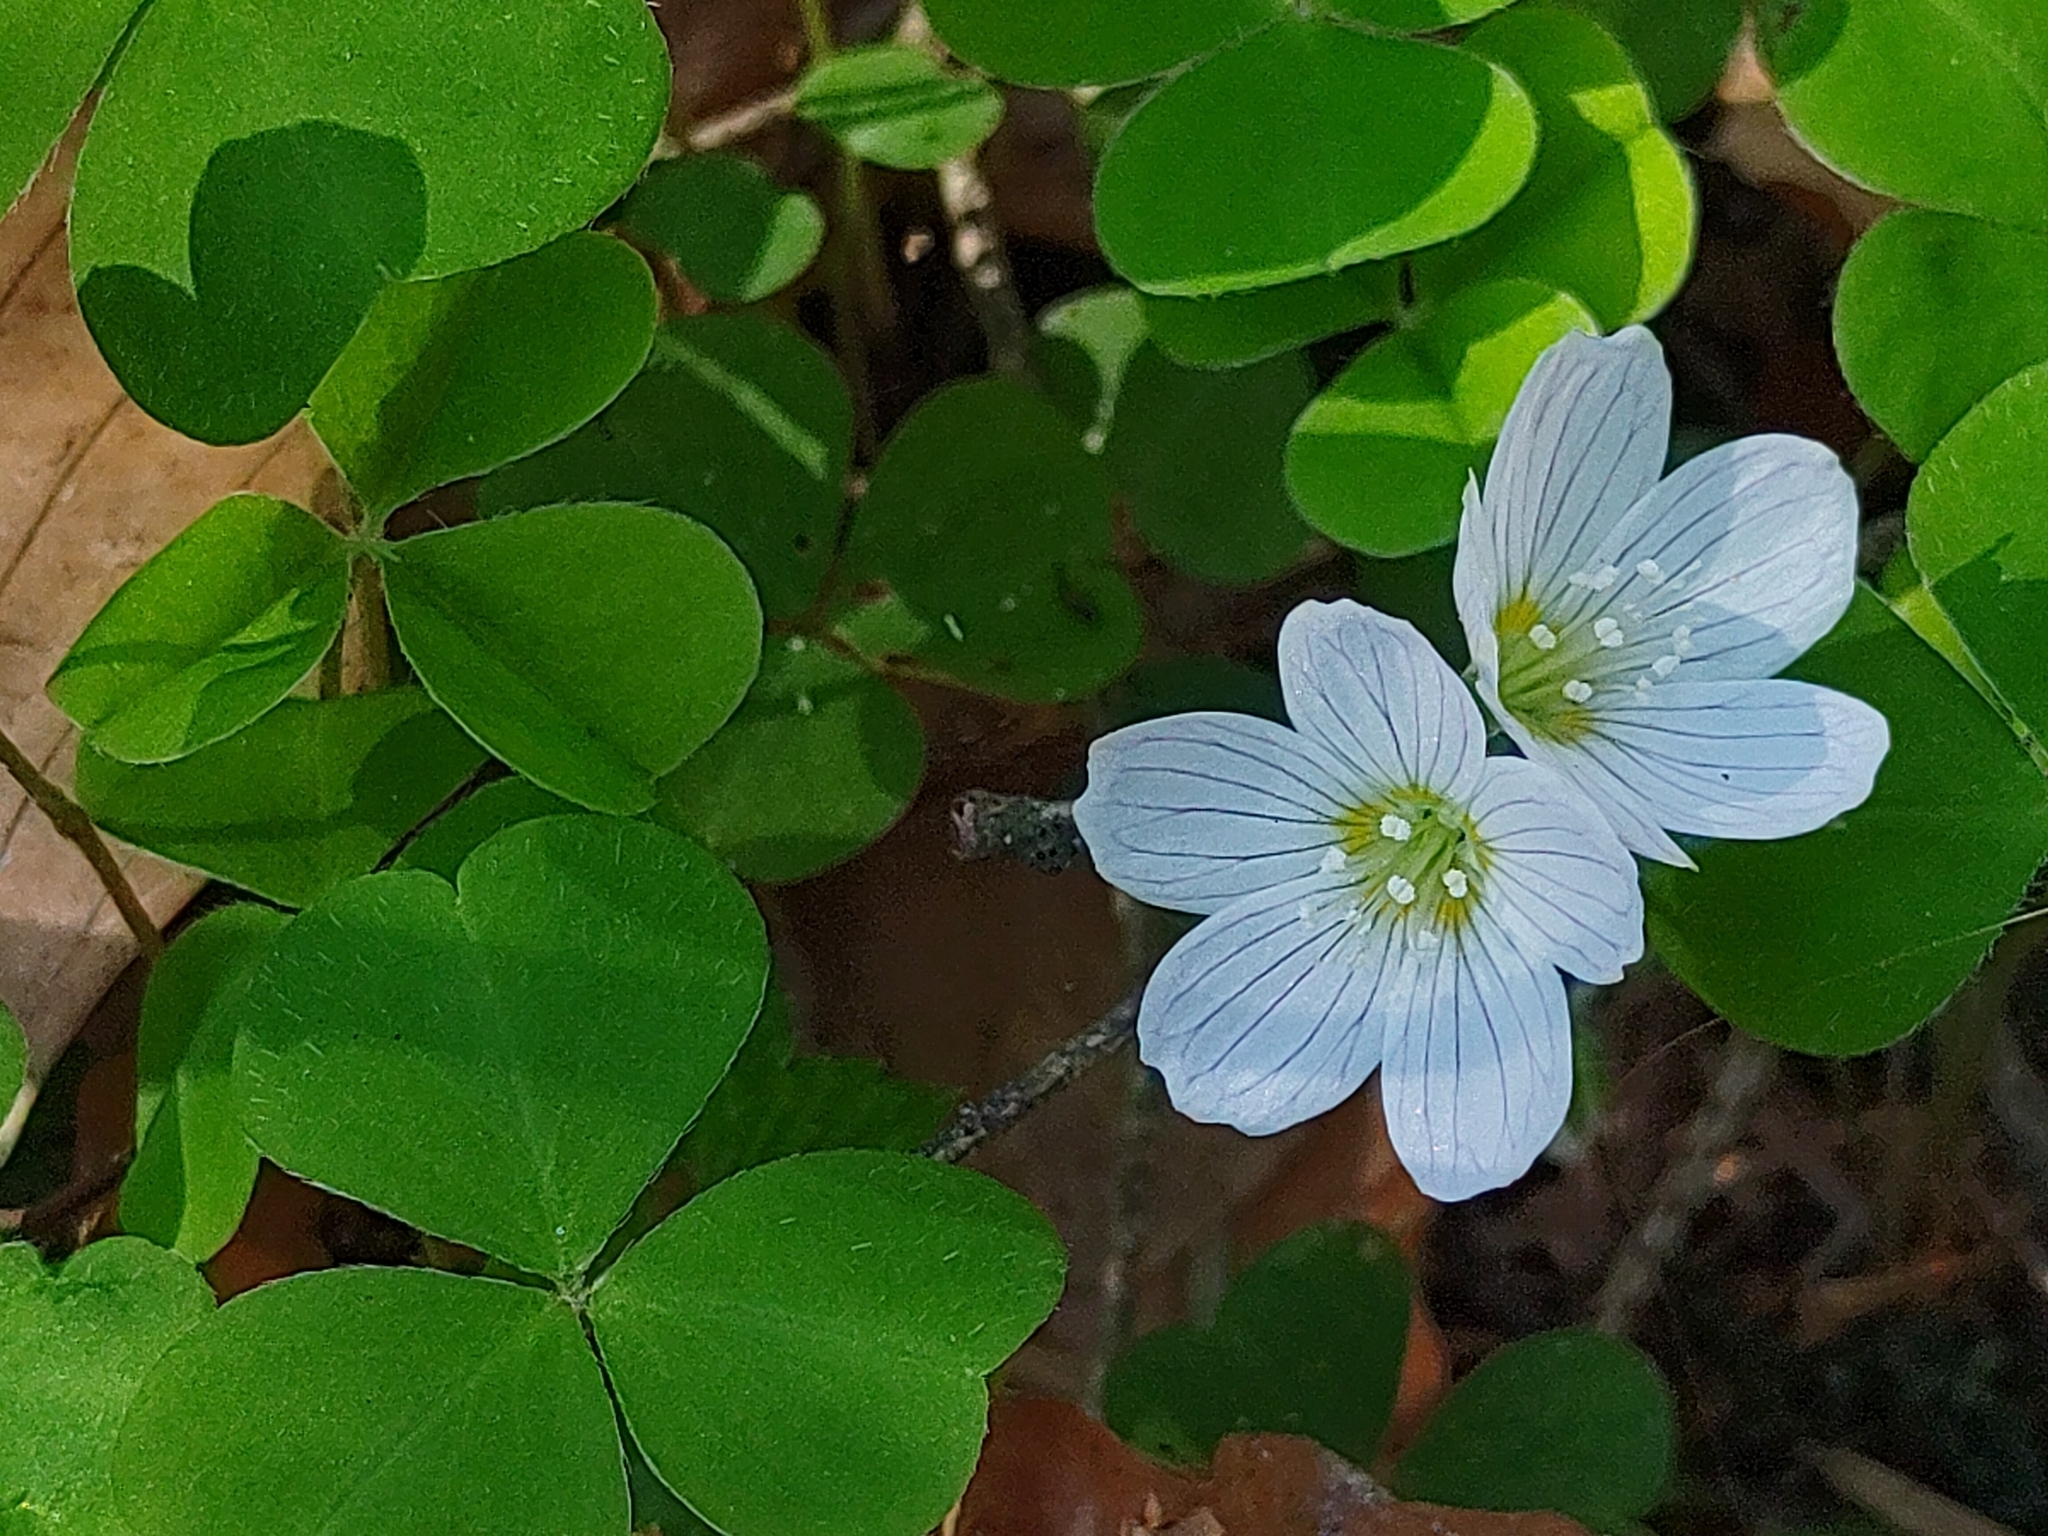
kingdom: Plantae
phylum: Tracheophyta
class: Magnoliopsida
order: Oxalidales
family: Oxalidaceae
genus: Oxalis
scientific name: Oxalis acetosella
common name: Wood-sorrel
